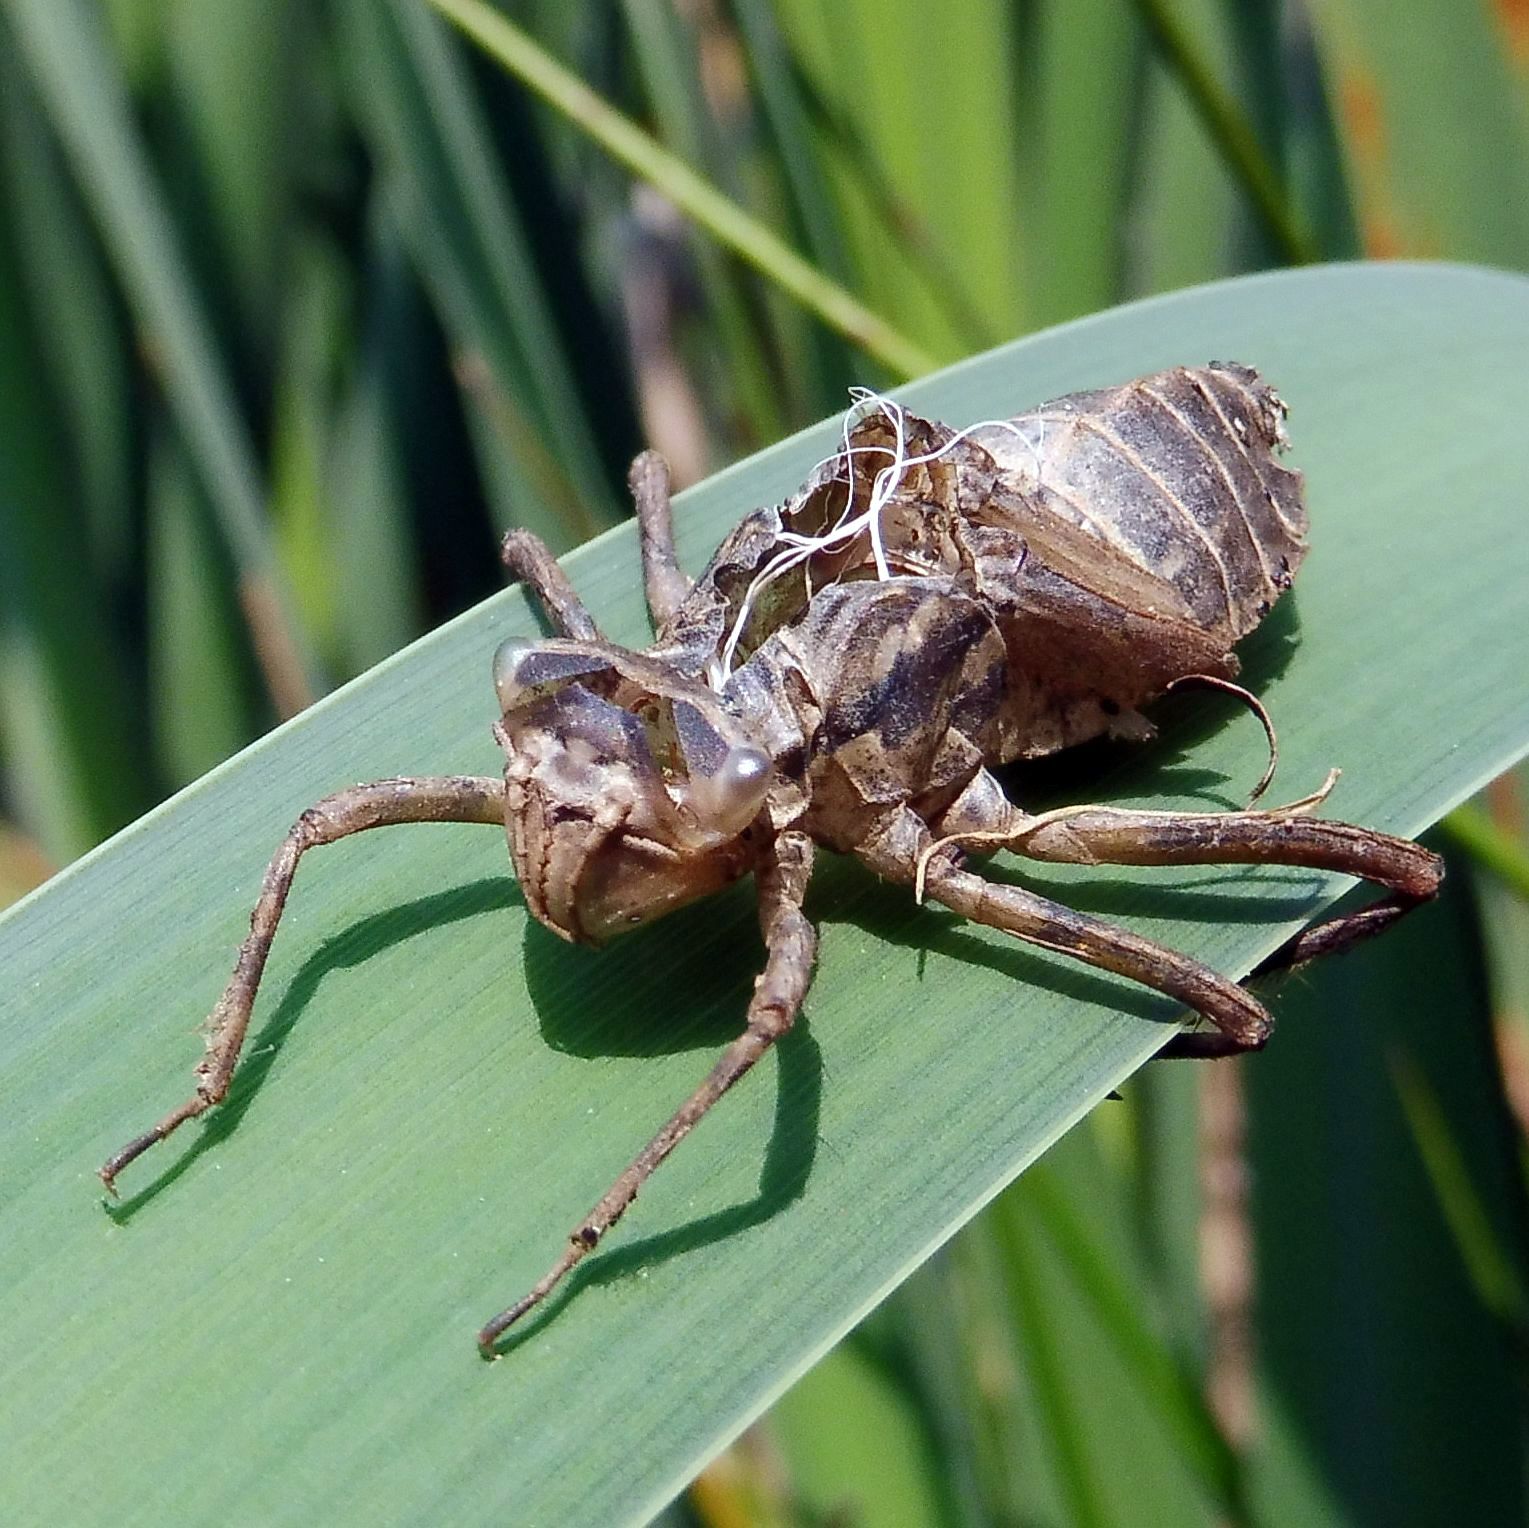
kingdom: Animalia
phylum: Arthropoda
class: Insecta
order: Odonata
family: Corduliidae
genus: Cordulia
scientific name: Cordulia aenea
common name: Downy emerald
